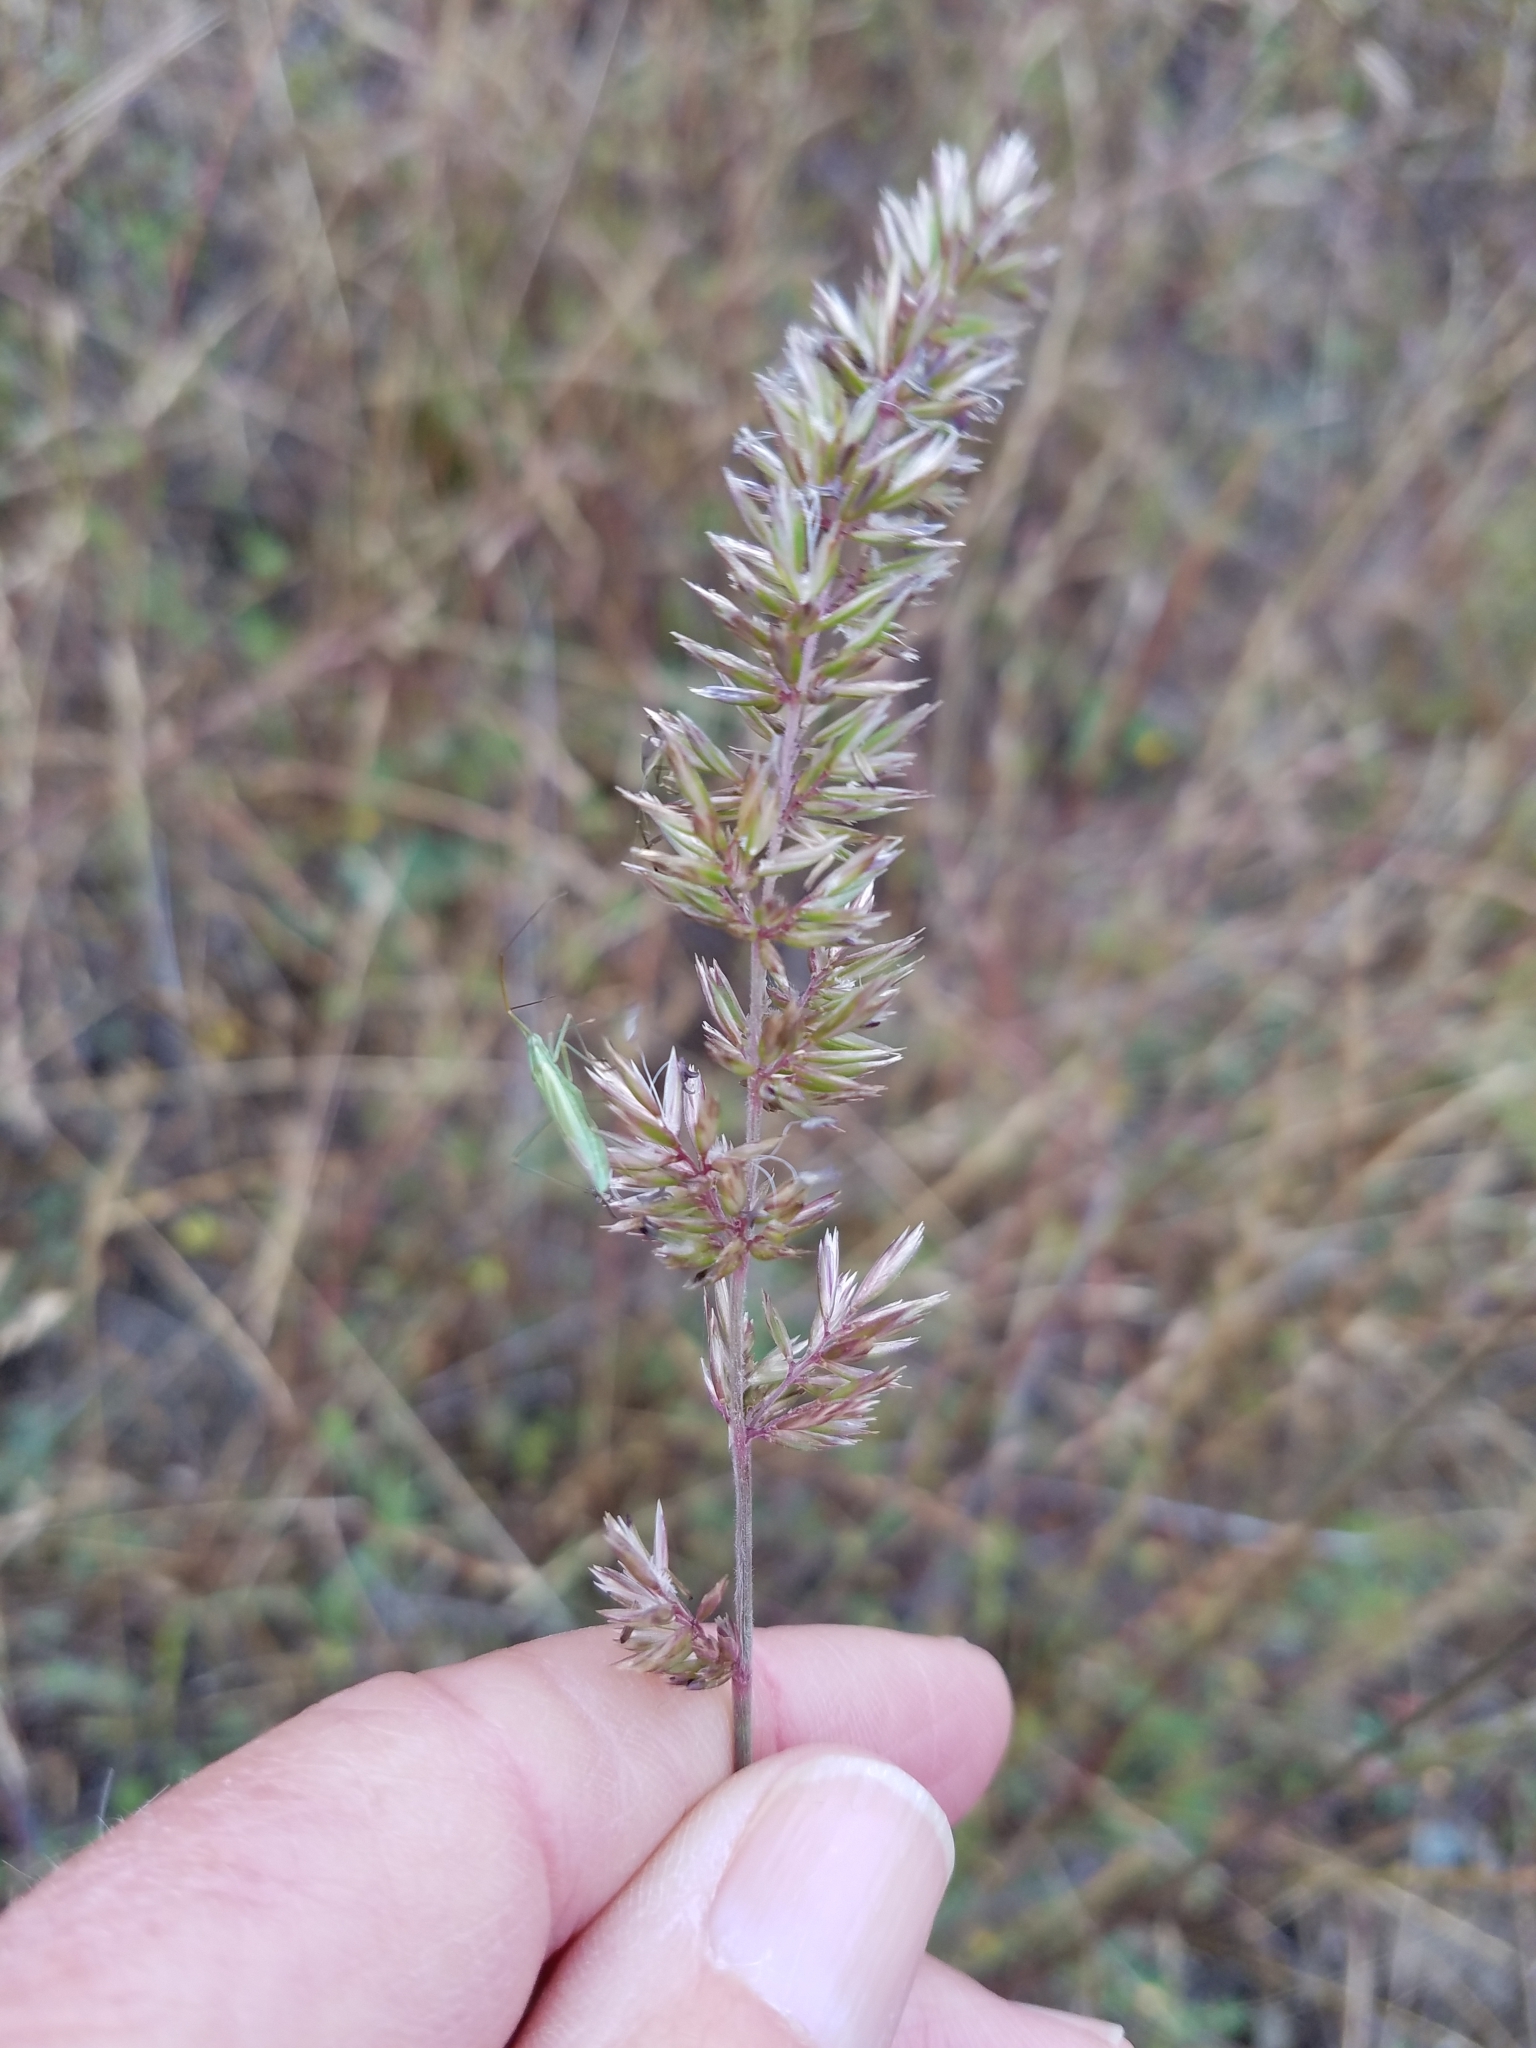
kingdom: Plantae
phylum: Tracheophyta
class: Liliopsida
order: Poales
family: Poaceae
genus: Koeleria
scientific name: Koeleria macrantha
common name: Crested hair-grass
